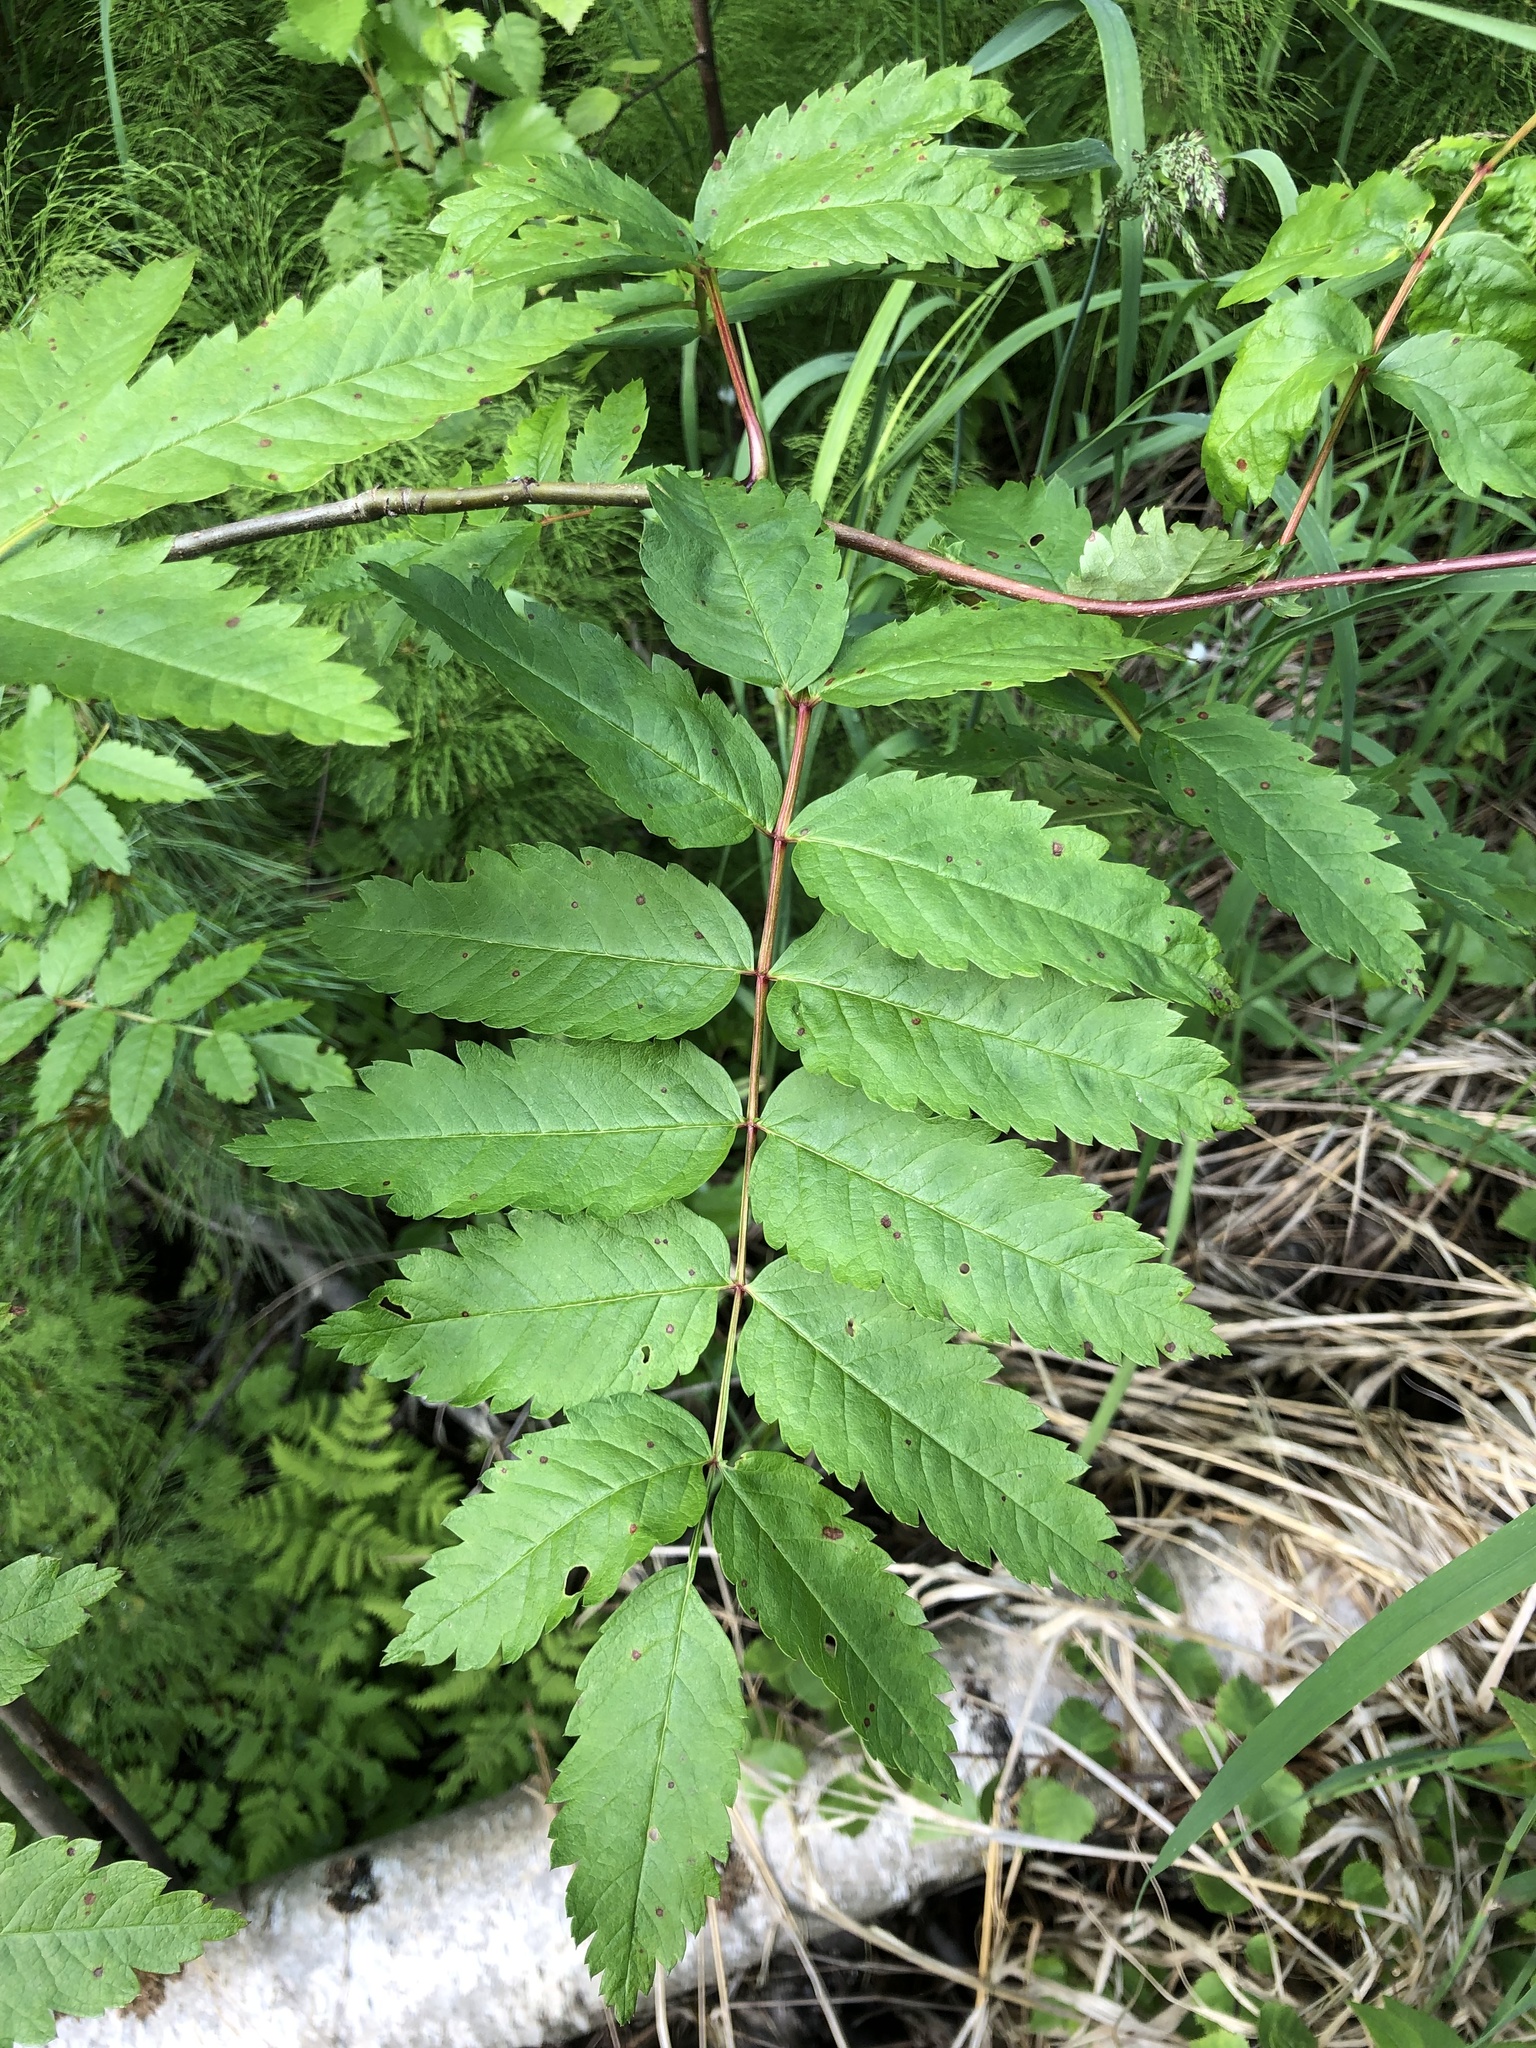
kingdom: Plantae
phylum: Tracheophyta
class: Magnoliopsida
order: Rosales
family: Rosaceae
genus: Sorbus
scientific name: Sorbus aucuparia
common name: Rowan
